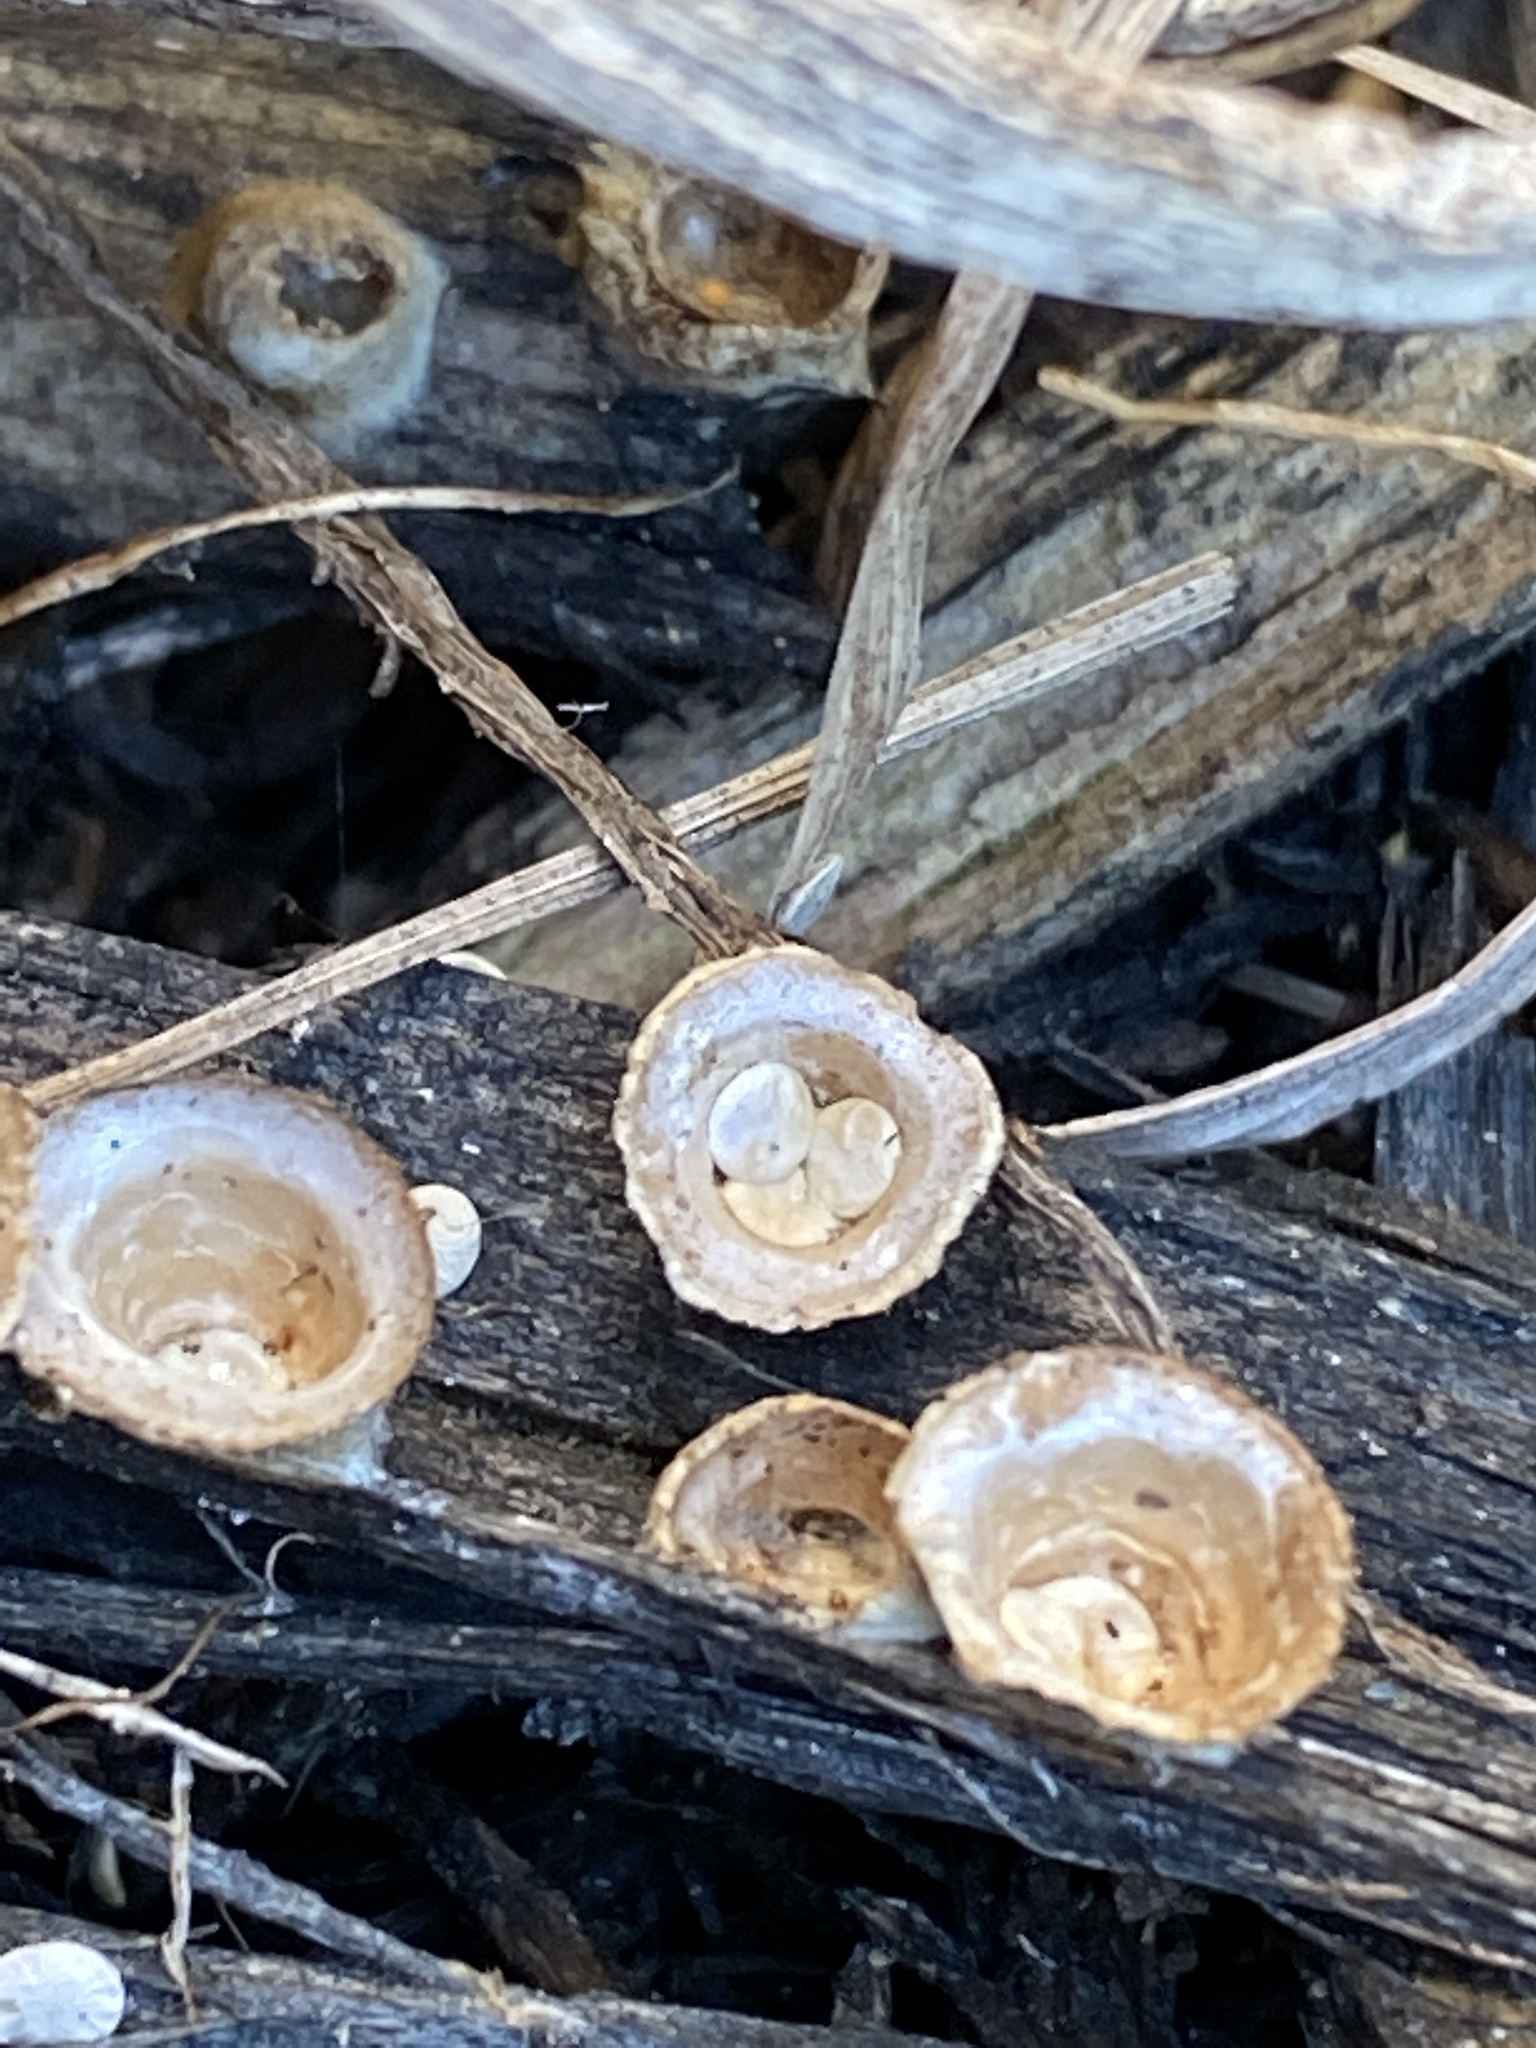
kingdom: Fungi
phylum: Basidiomycota
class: Agaricomycetes
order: Agaricales
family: Nidulariaceae
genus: Crucibulum
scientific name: Crucibulum laeve
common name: Common bird's nest
